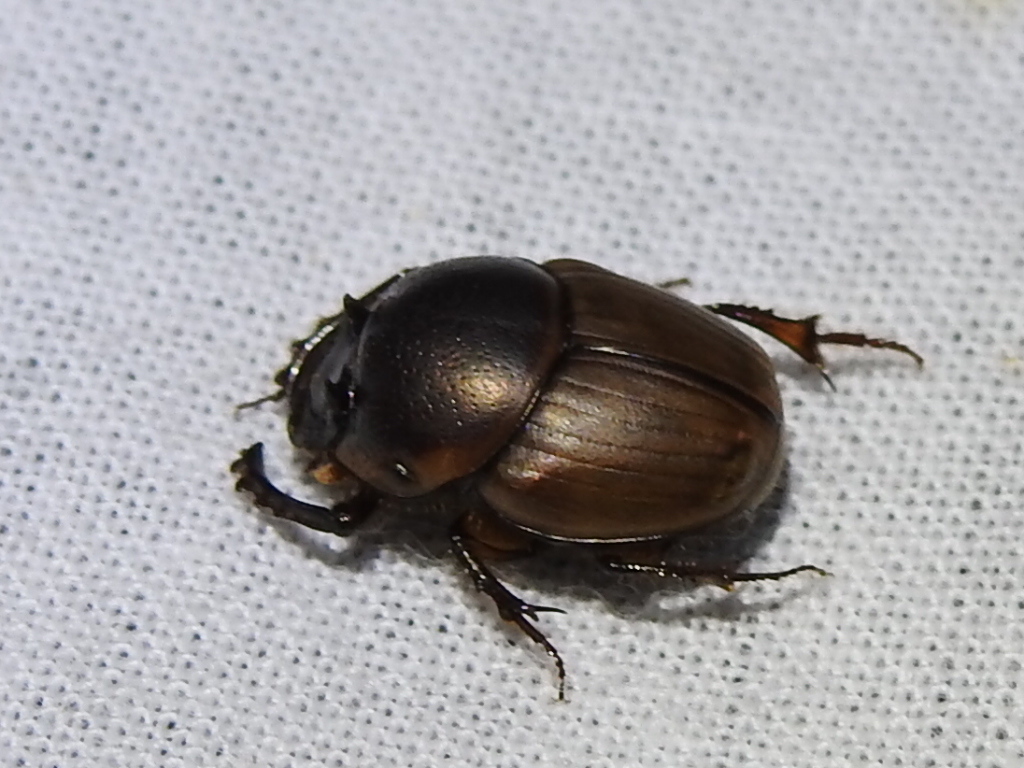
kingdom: Animalia
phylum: Arthropoda
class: Insecta
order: Coleoptera
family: Scarabaeidae
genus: Digitonthophagus
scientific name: Digitonthophagus gazella
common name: Brown dung beetle
